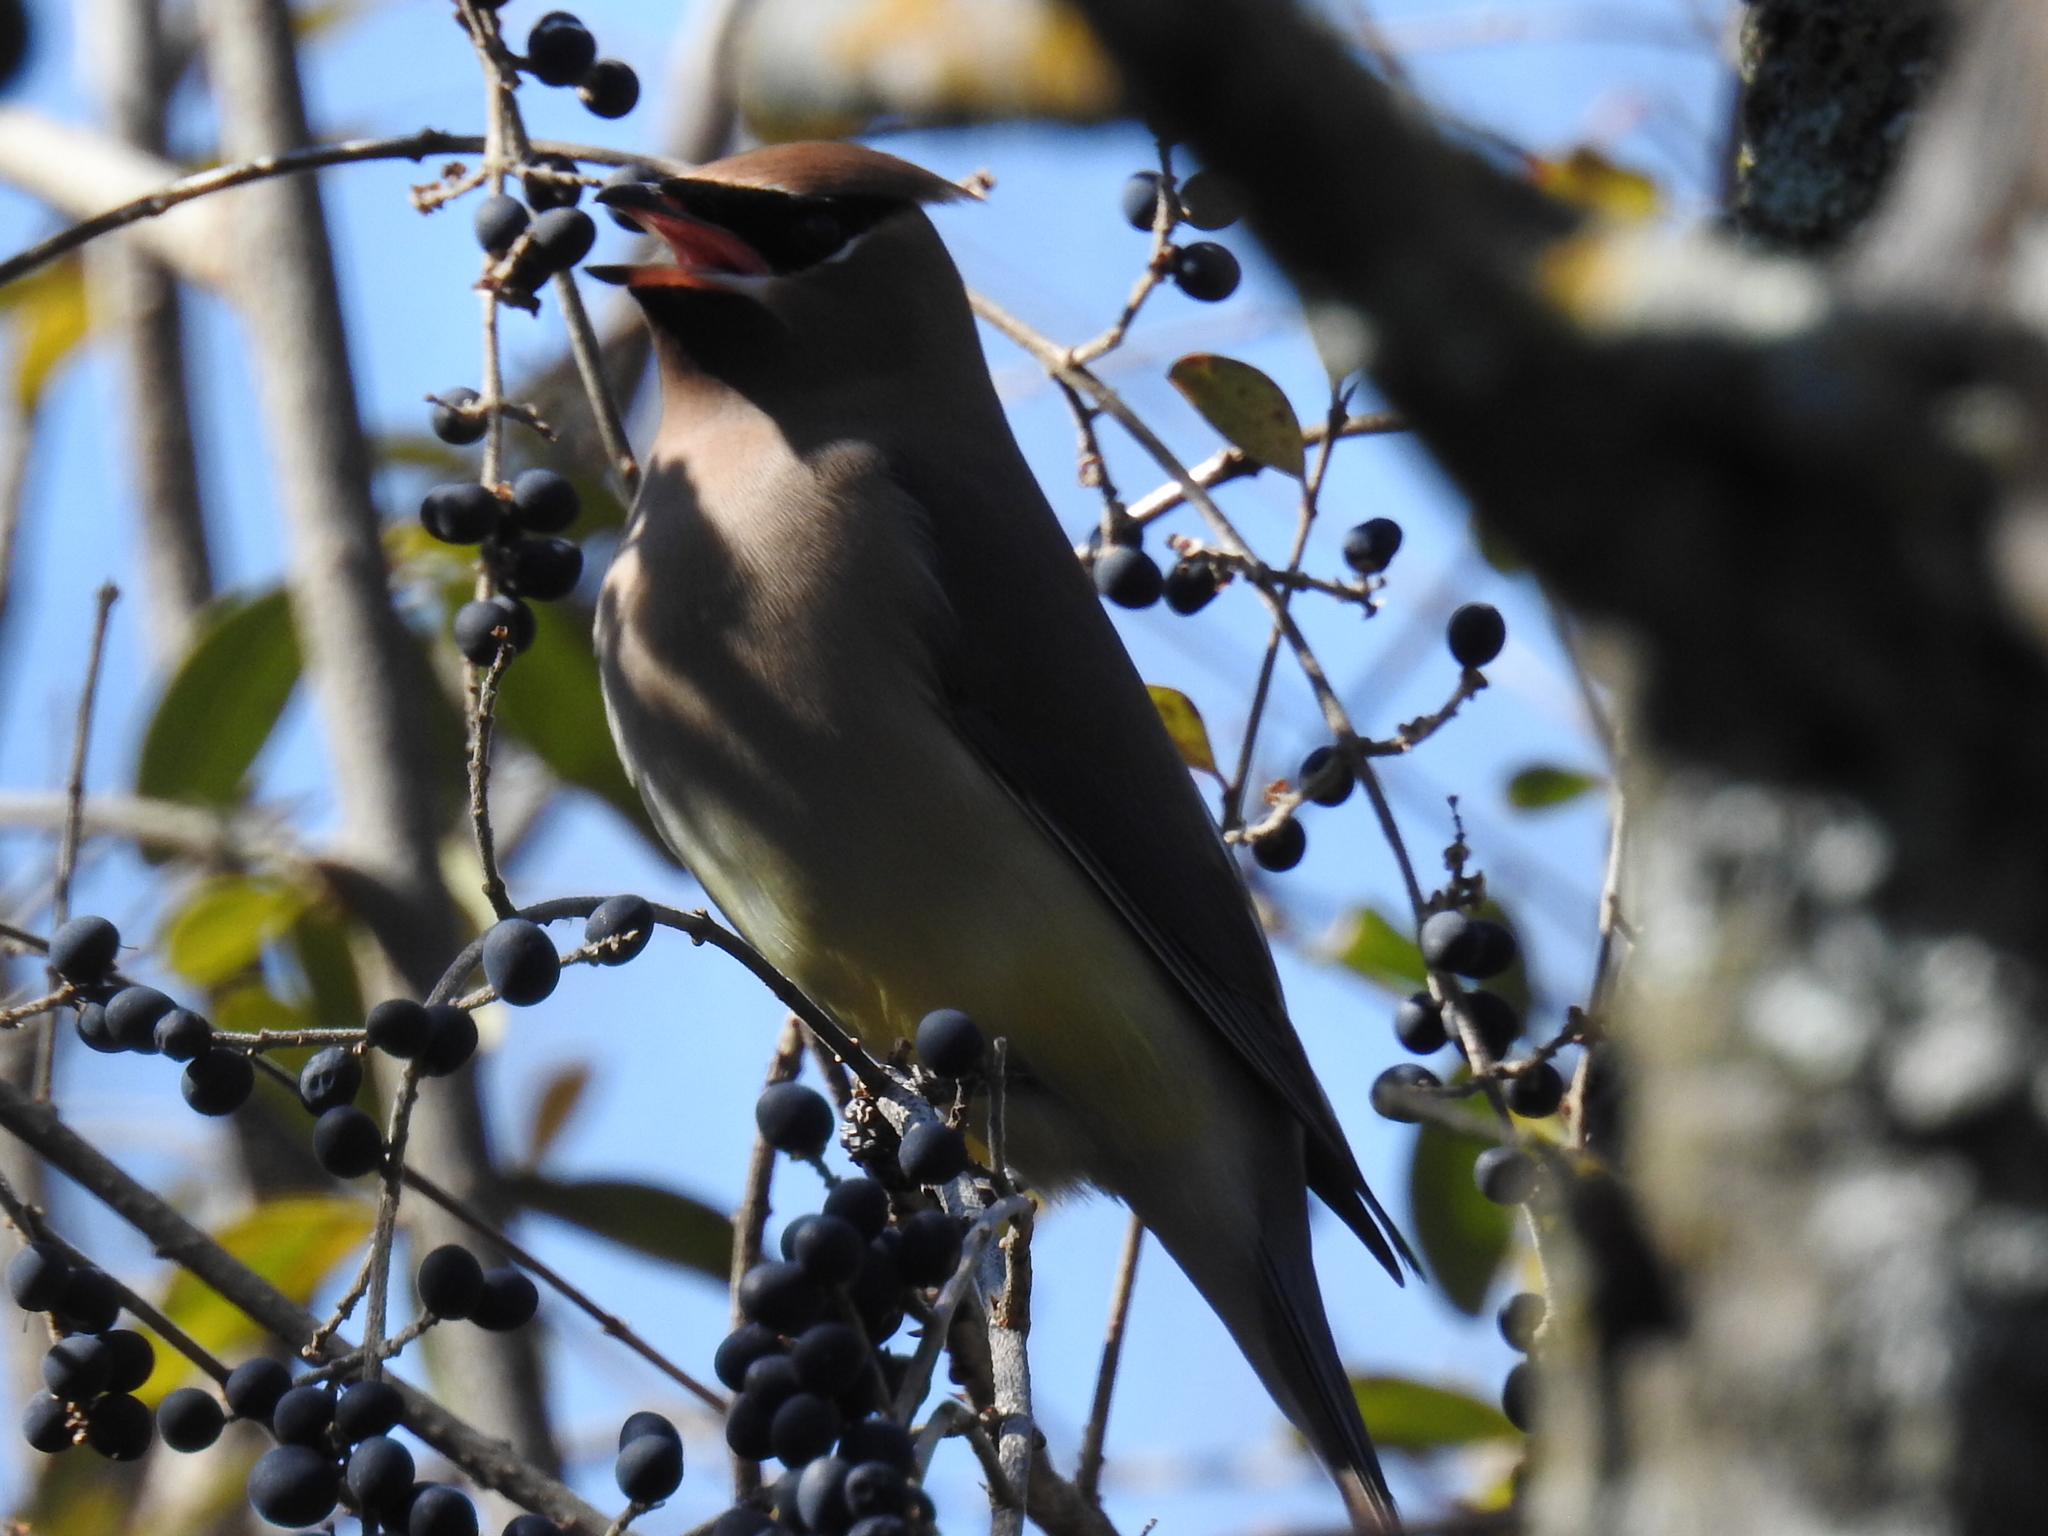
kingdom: Animalia
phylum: Chordata
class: Aves
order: Passeriformes
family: Bombycillidae
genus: Bombycilla
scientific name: Bombycilla cedrorum
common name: Cedar waxwing
